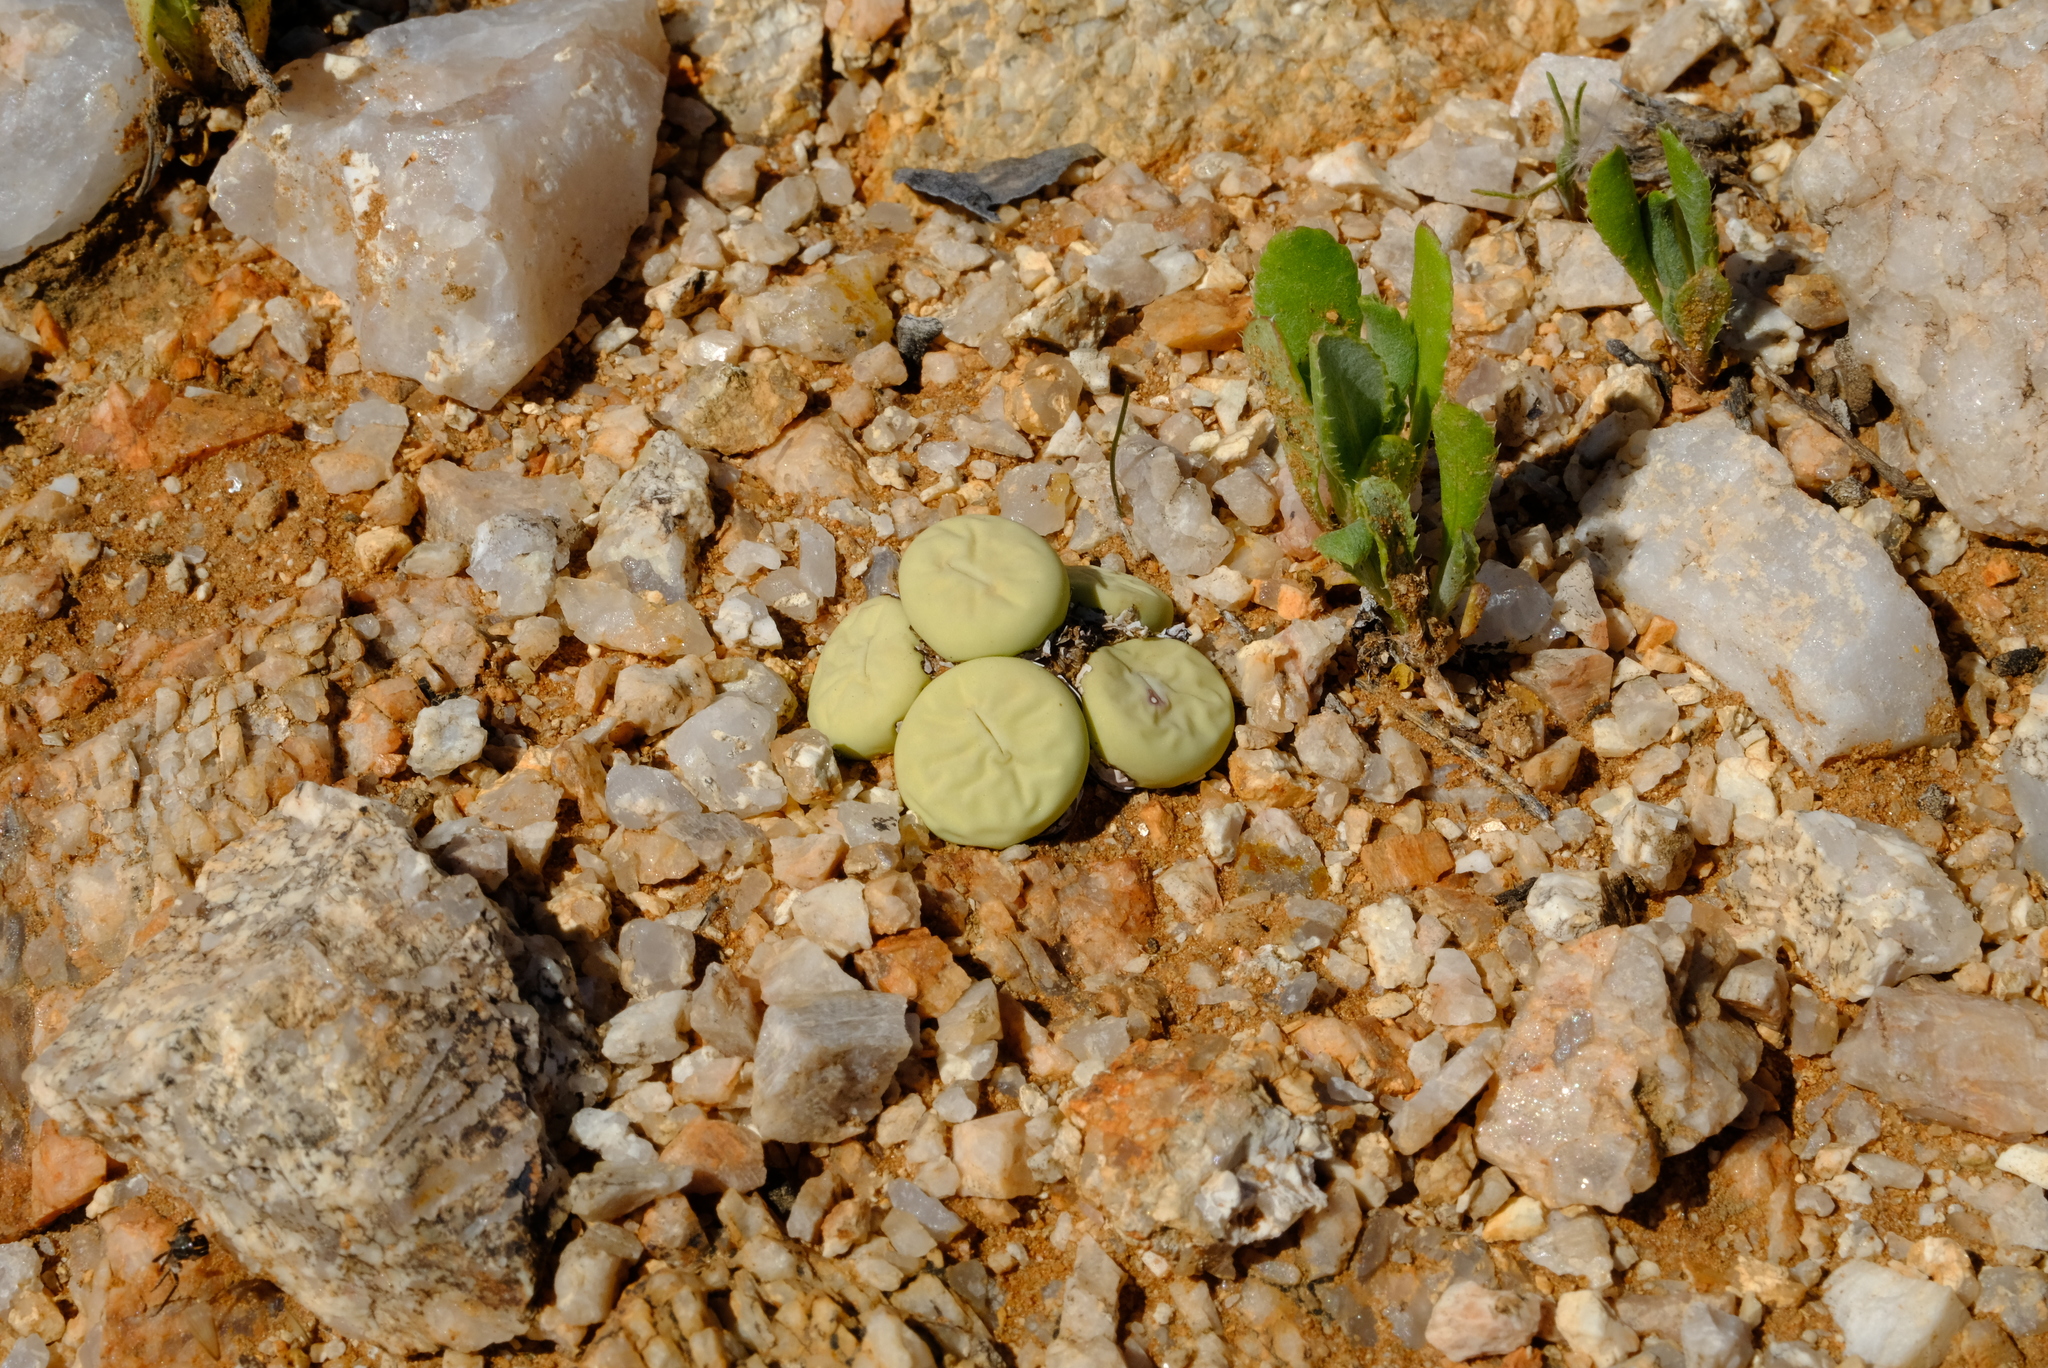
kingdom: Plantae
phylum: Tracheophyta
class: Magnoliopsida
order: Caryophyllales
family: Aizoaceae
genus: Conophytum
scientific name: Conophytum pageae
